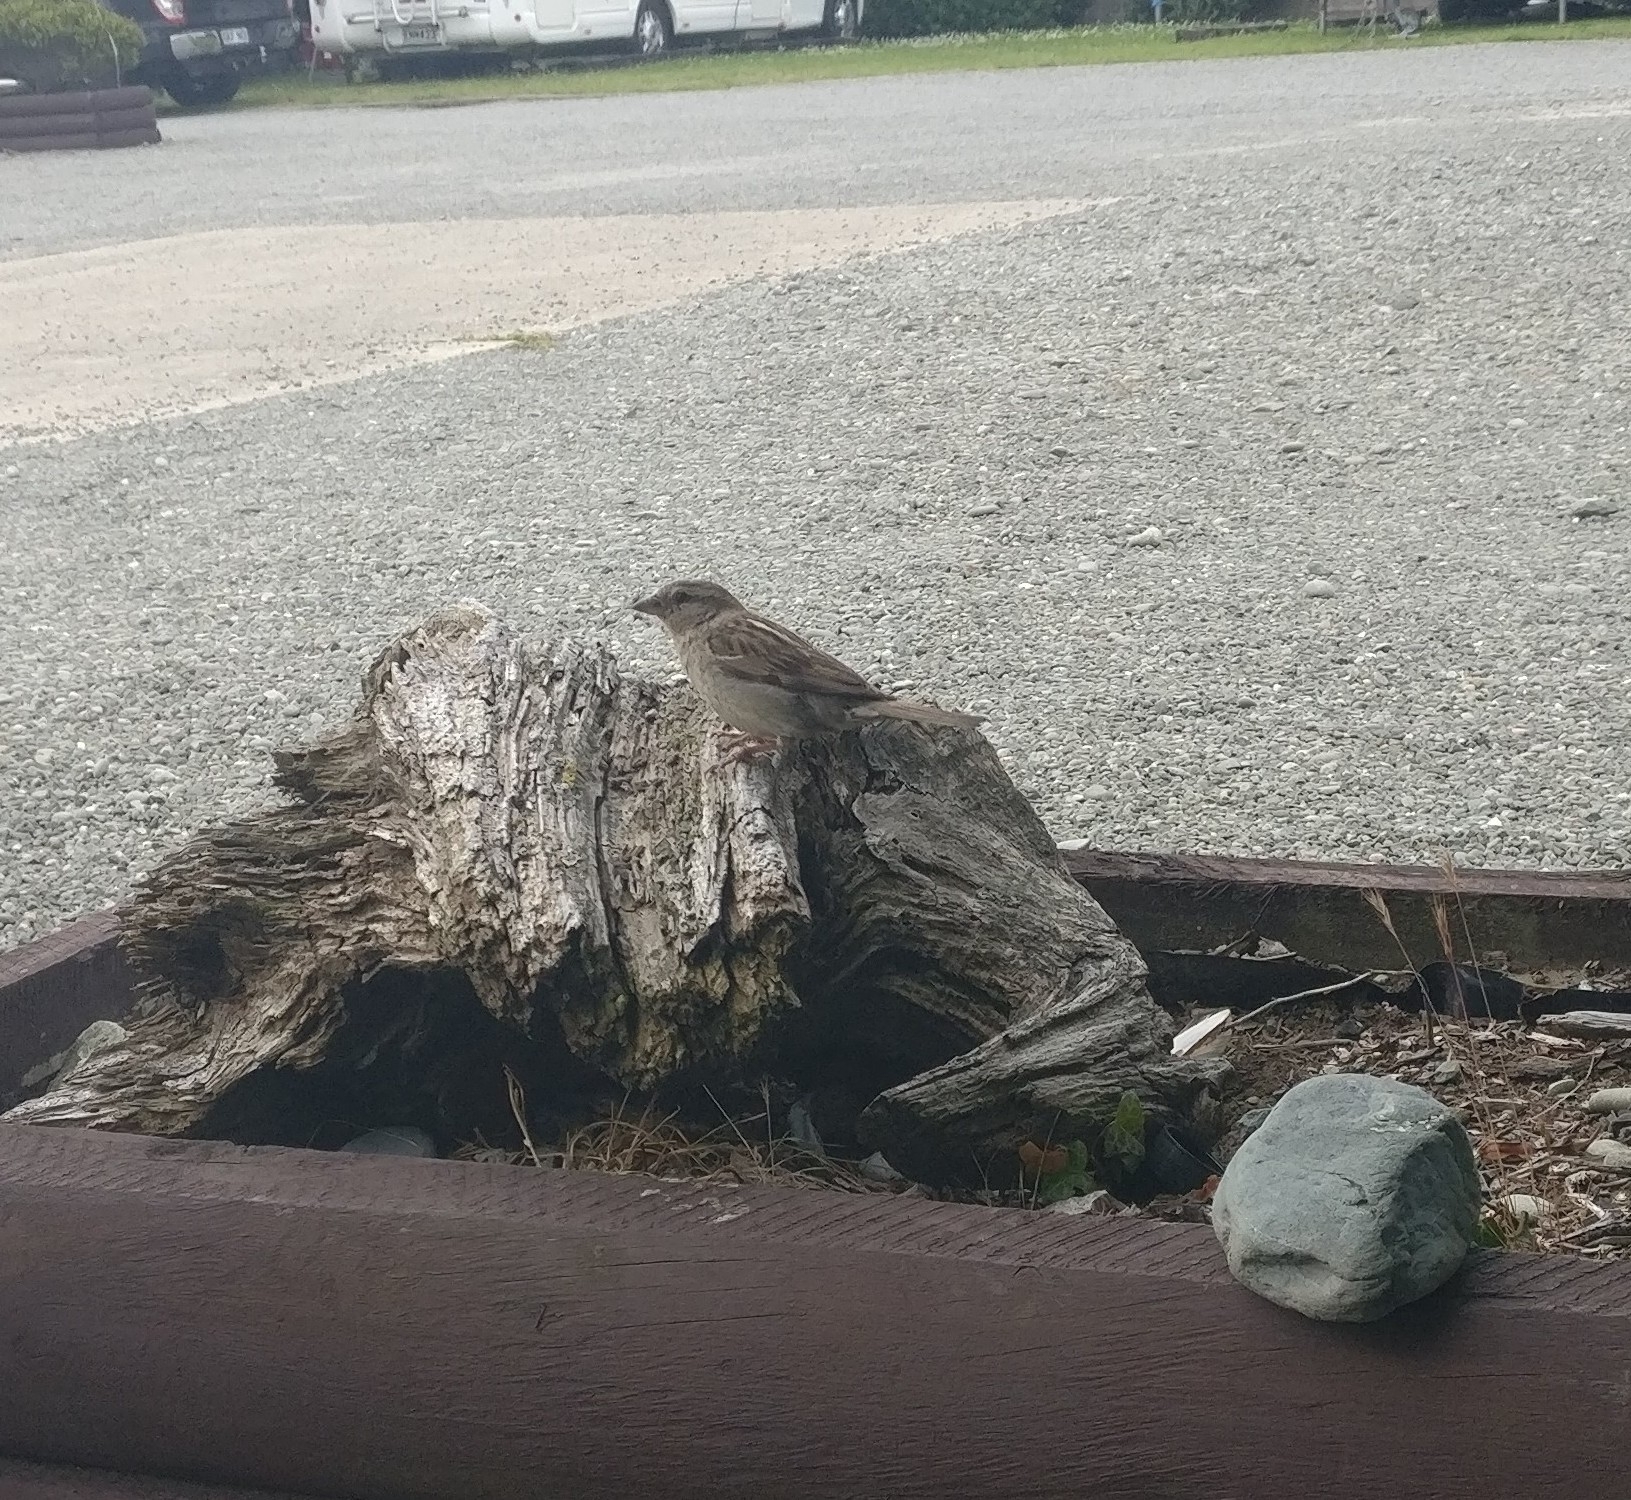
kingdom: Animalia
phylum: Chordata
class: Aves
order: Passeriformes
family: Passeridae
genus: Passer
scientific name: Passer domesticus
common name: House sparrow
